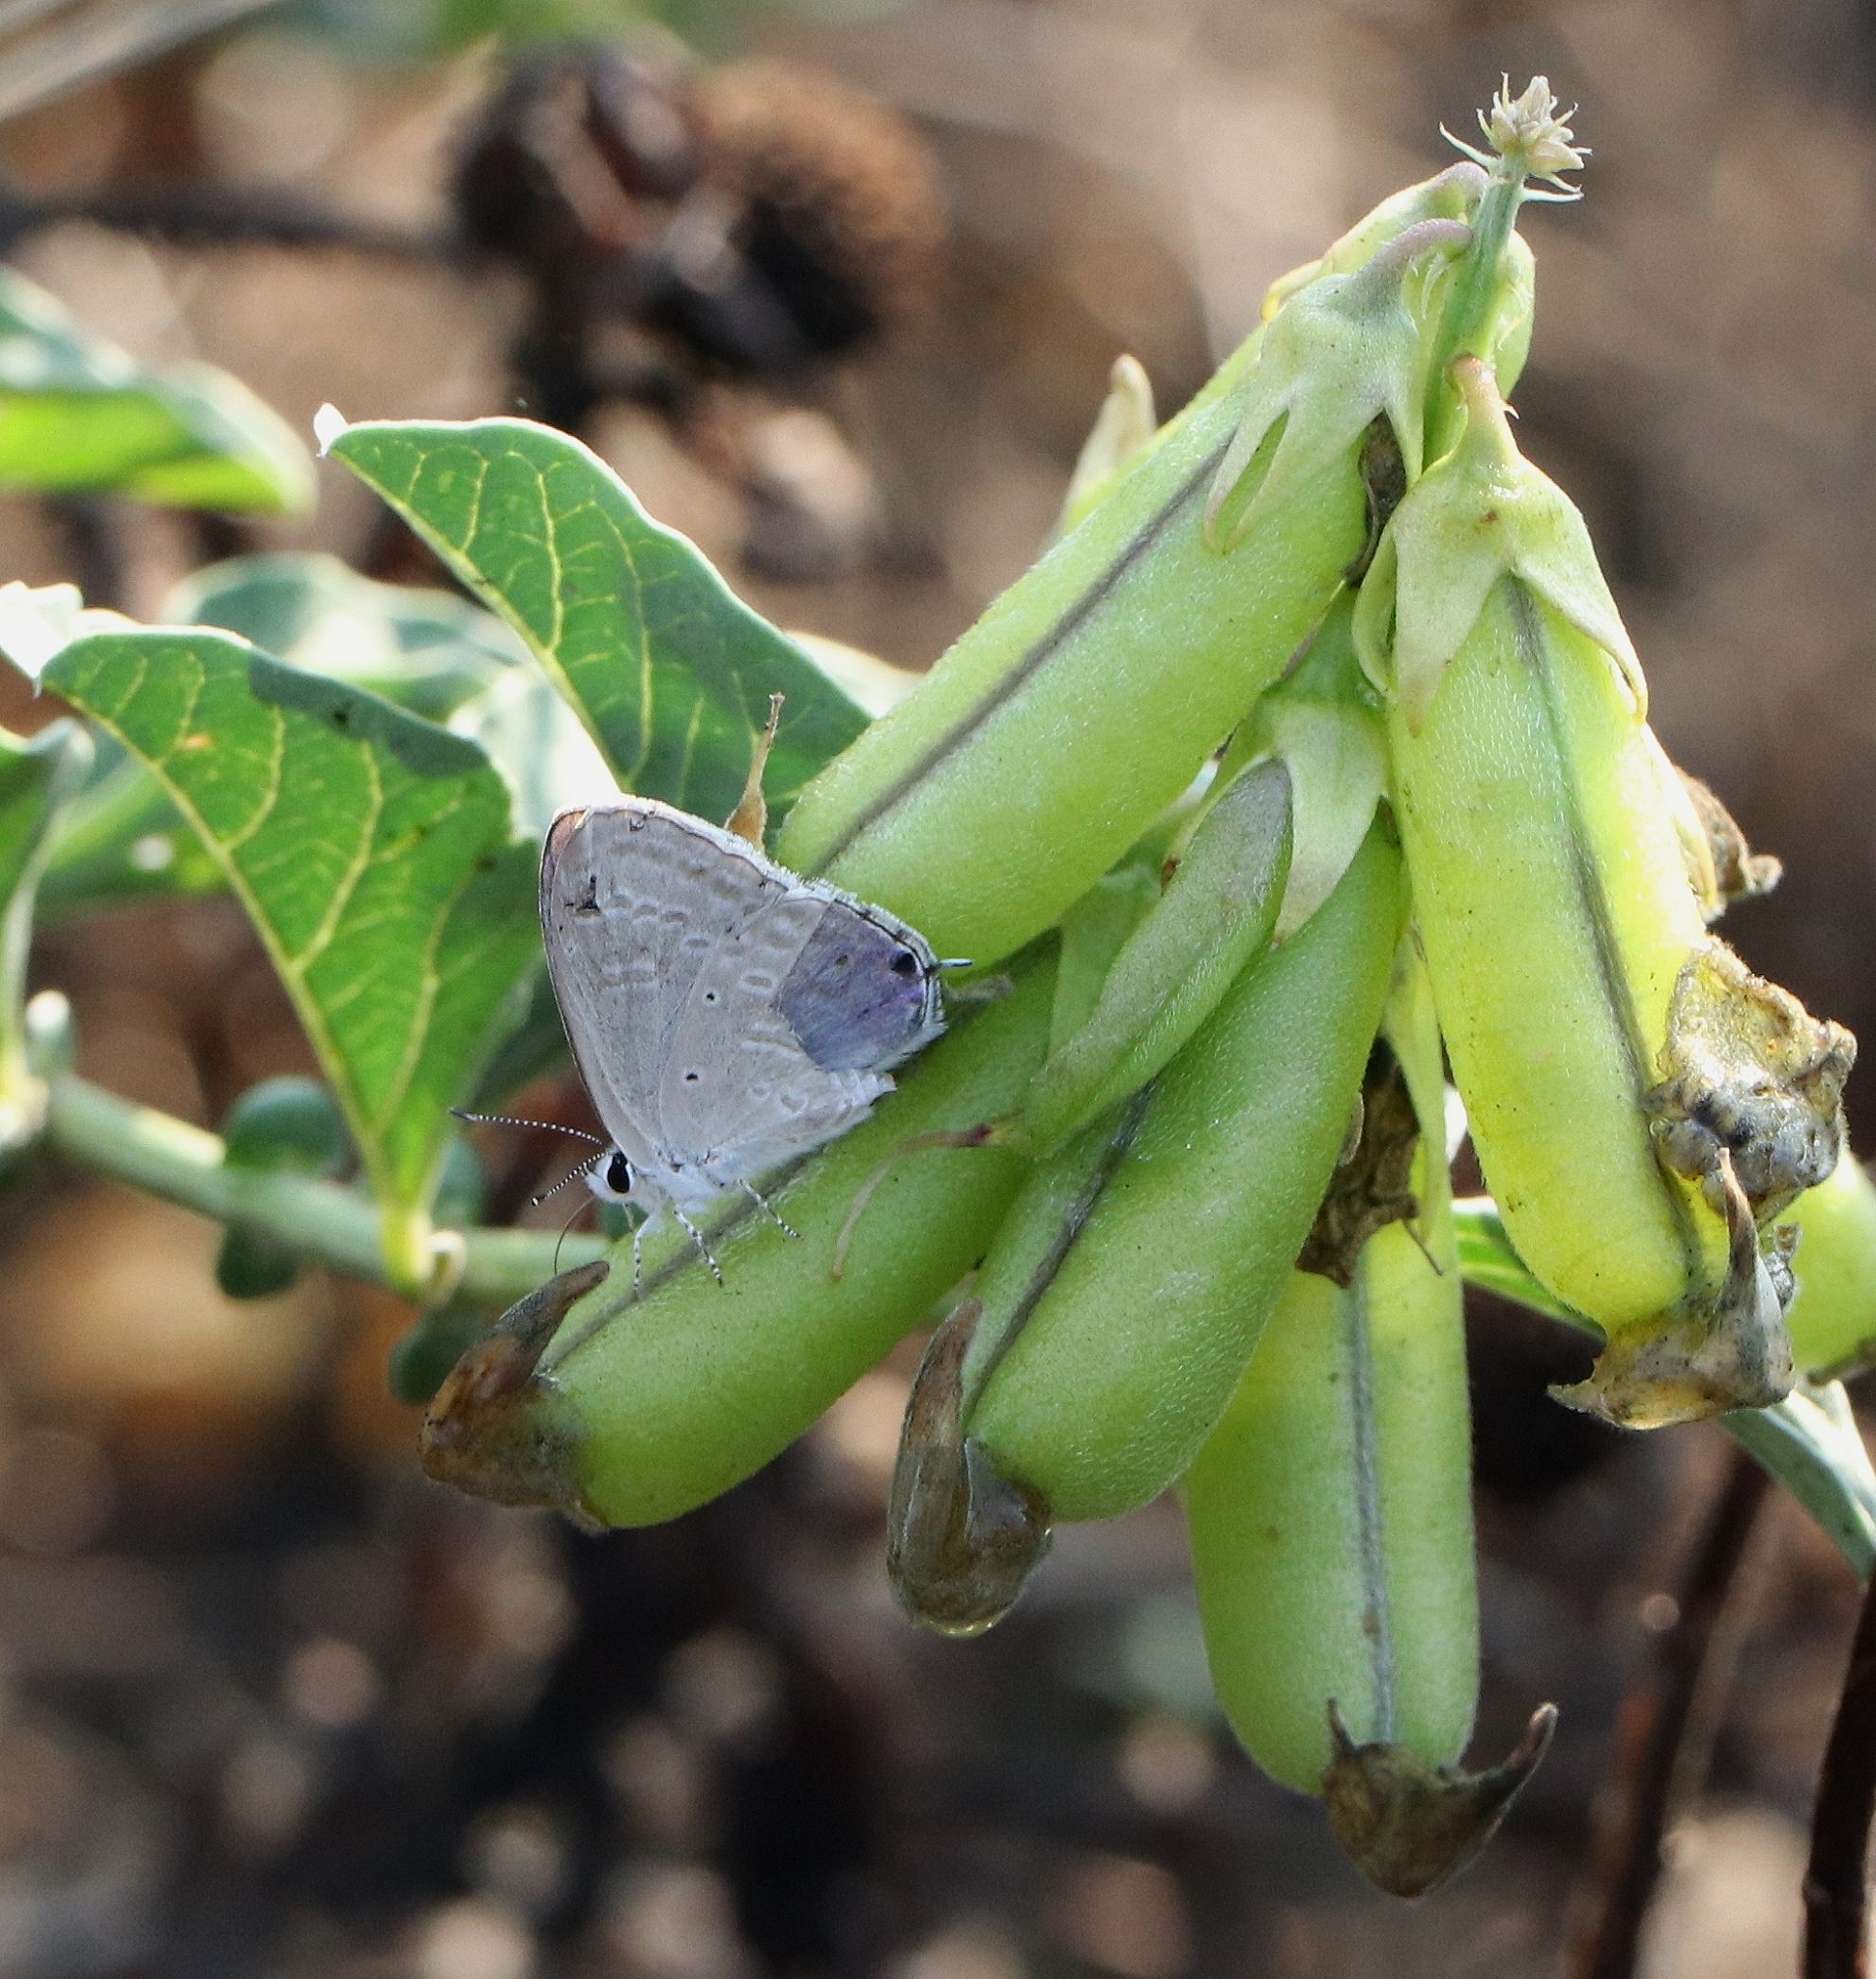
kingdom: Animalia
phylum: Arthropoda
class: Insecta
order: Lepidoptera
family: Lycaenidae
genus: Catochrysops
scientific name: Catochrysops strabo
